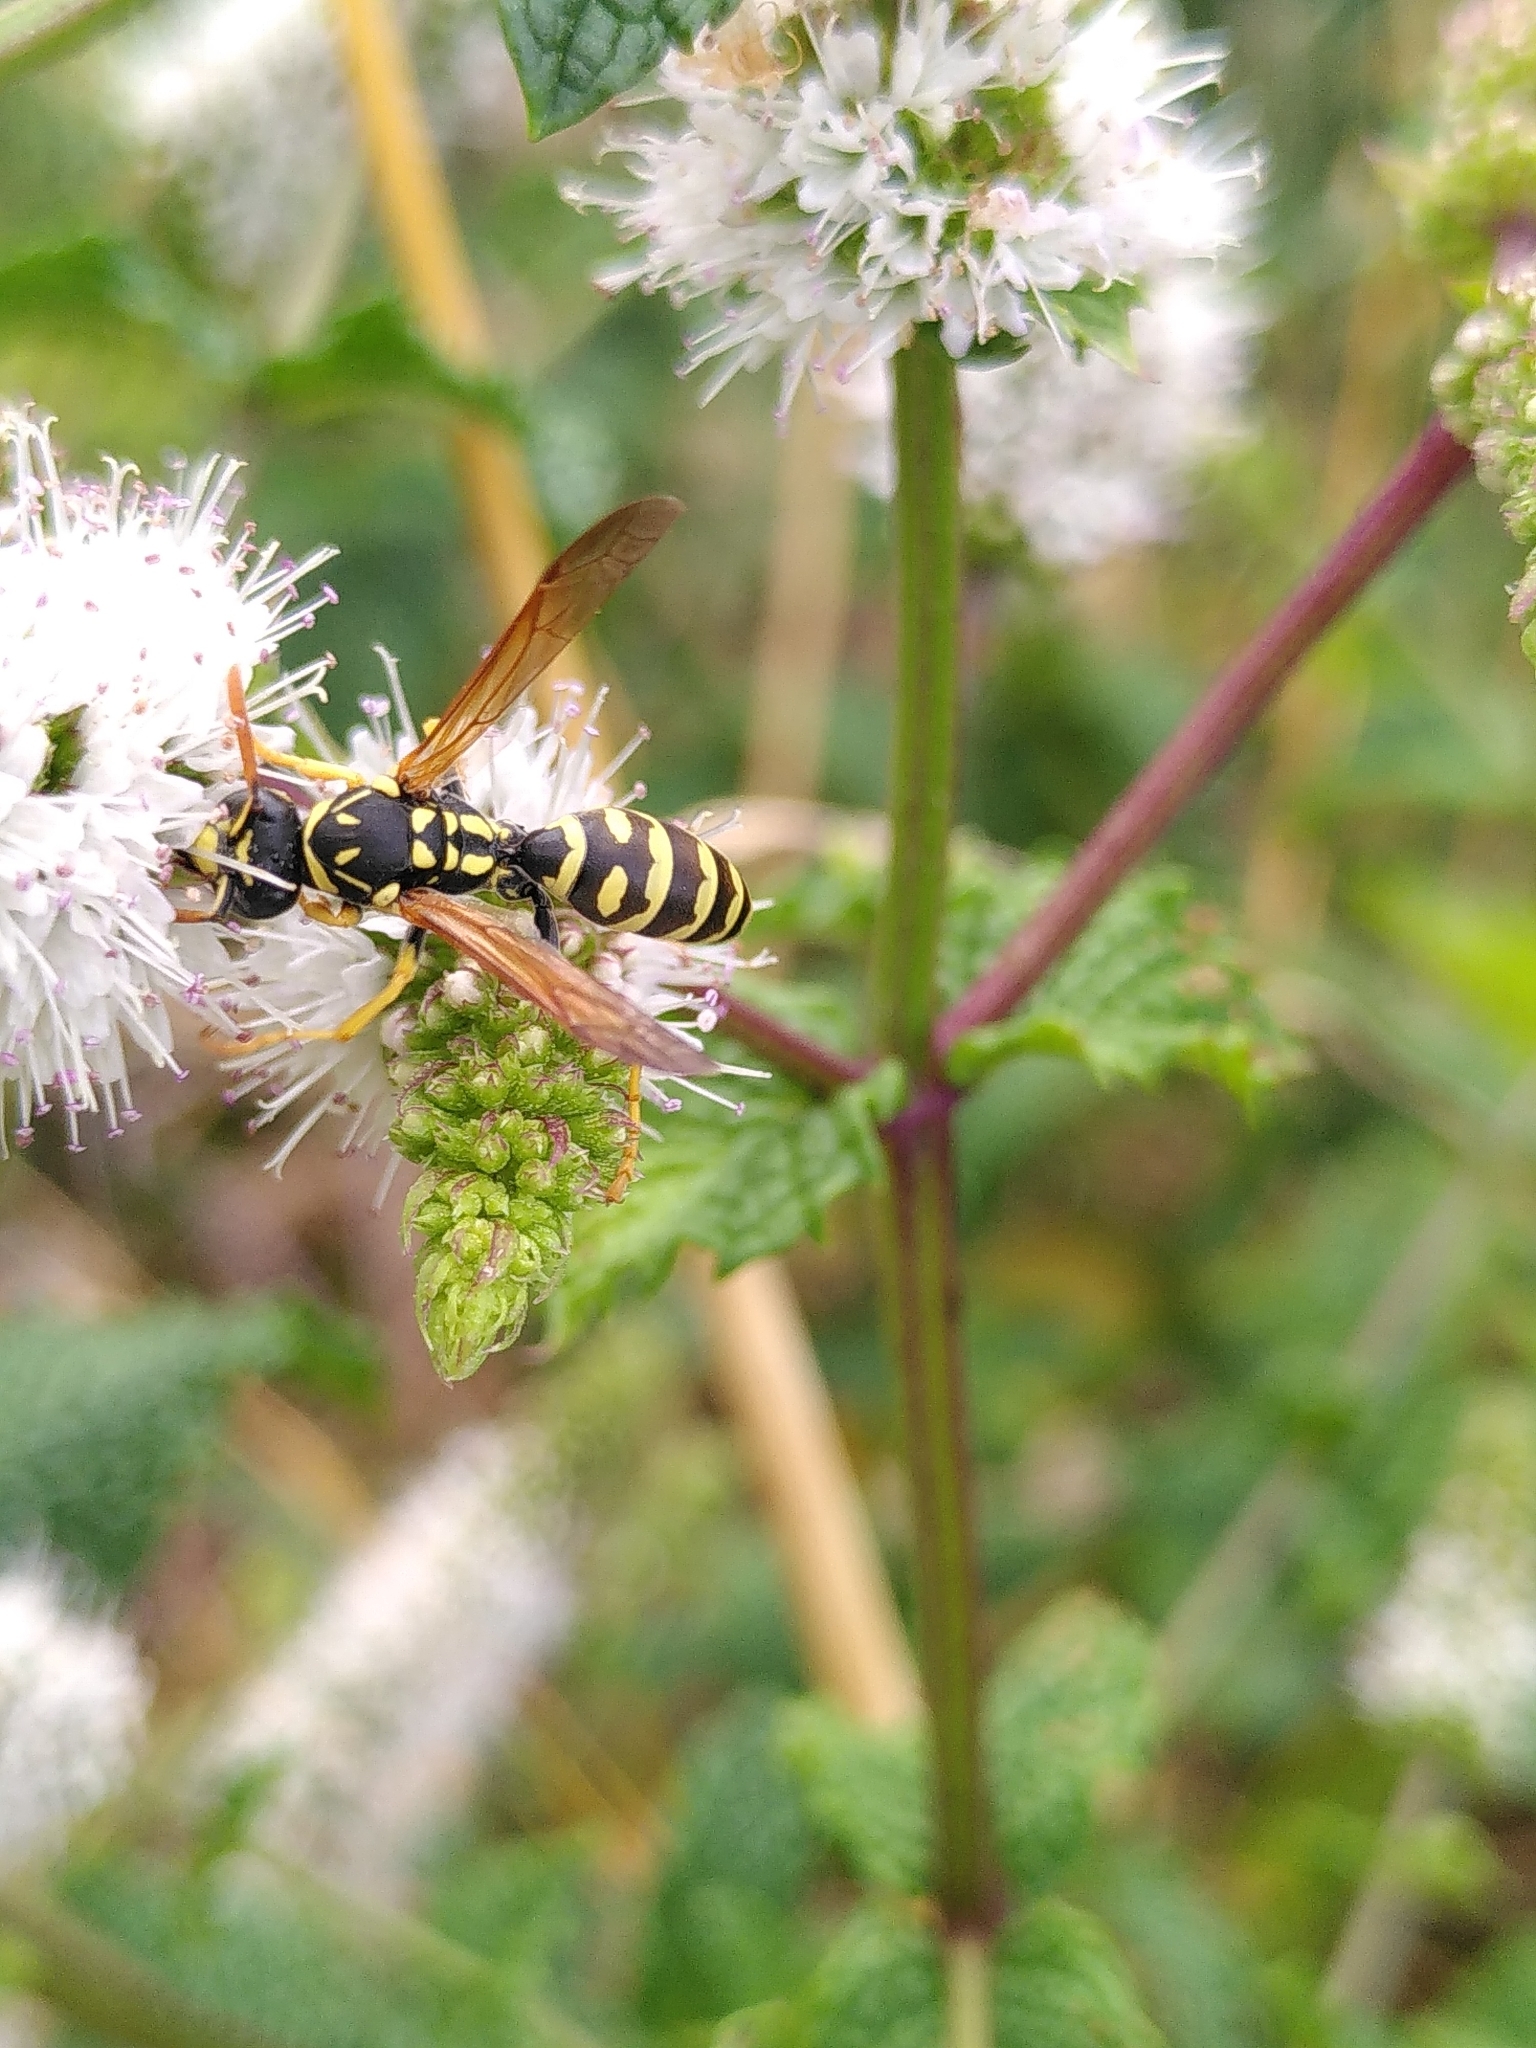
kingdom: Animalia
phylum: Arthropoda
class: Insecta
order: Hymenoptera
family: Eumenidae
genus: Polistes
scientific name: Polistes dominula
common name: Paper wasp
